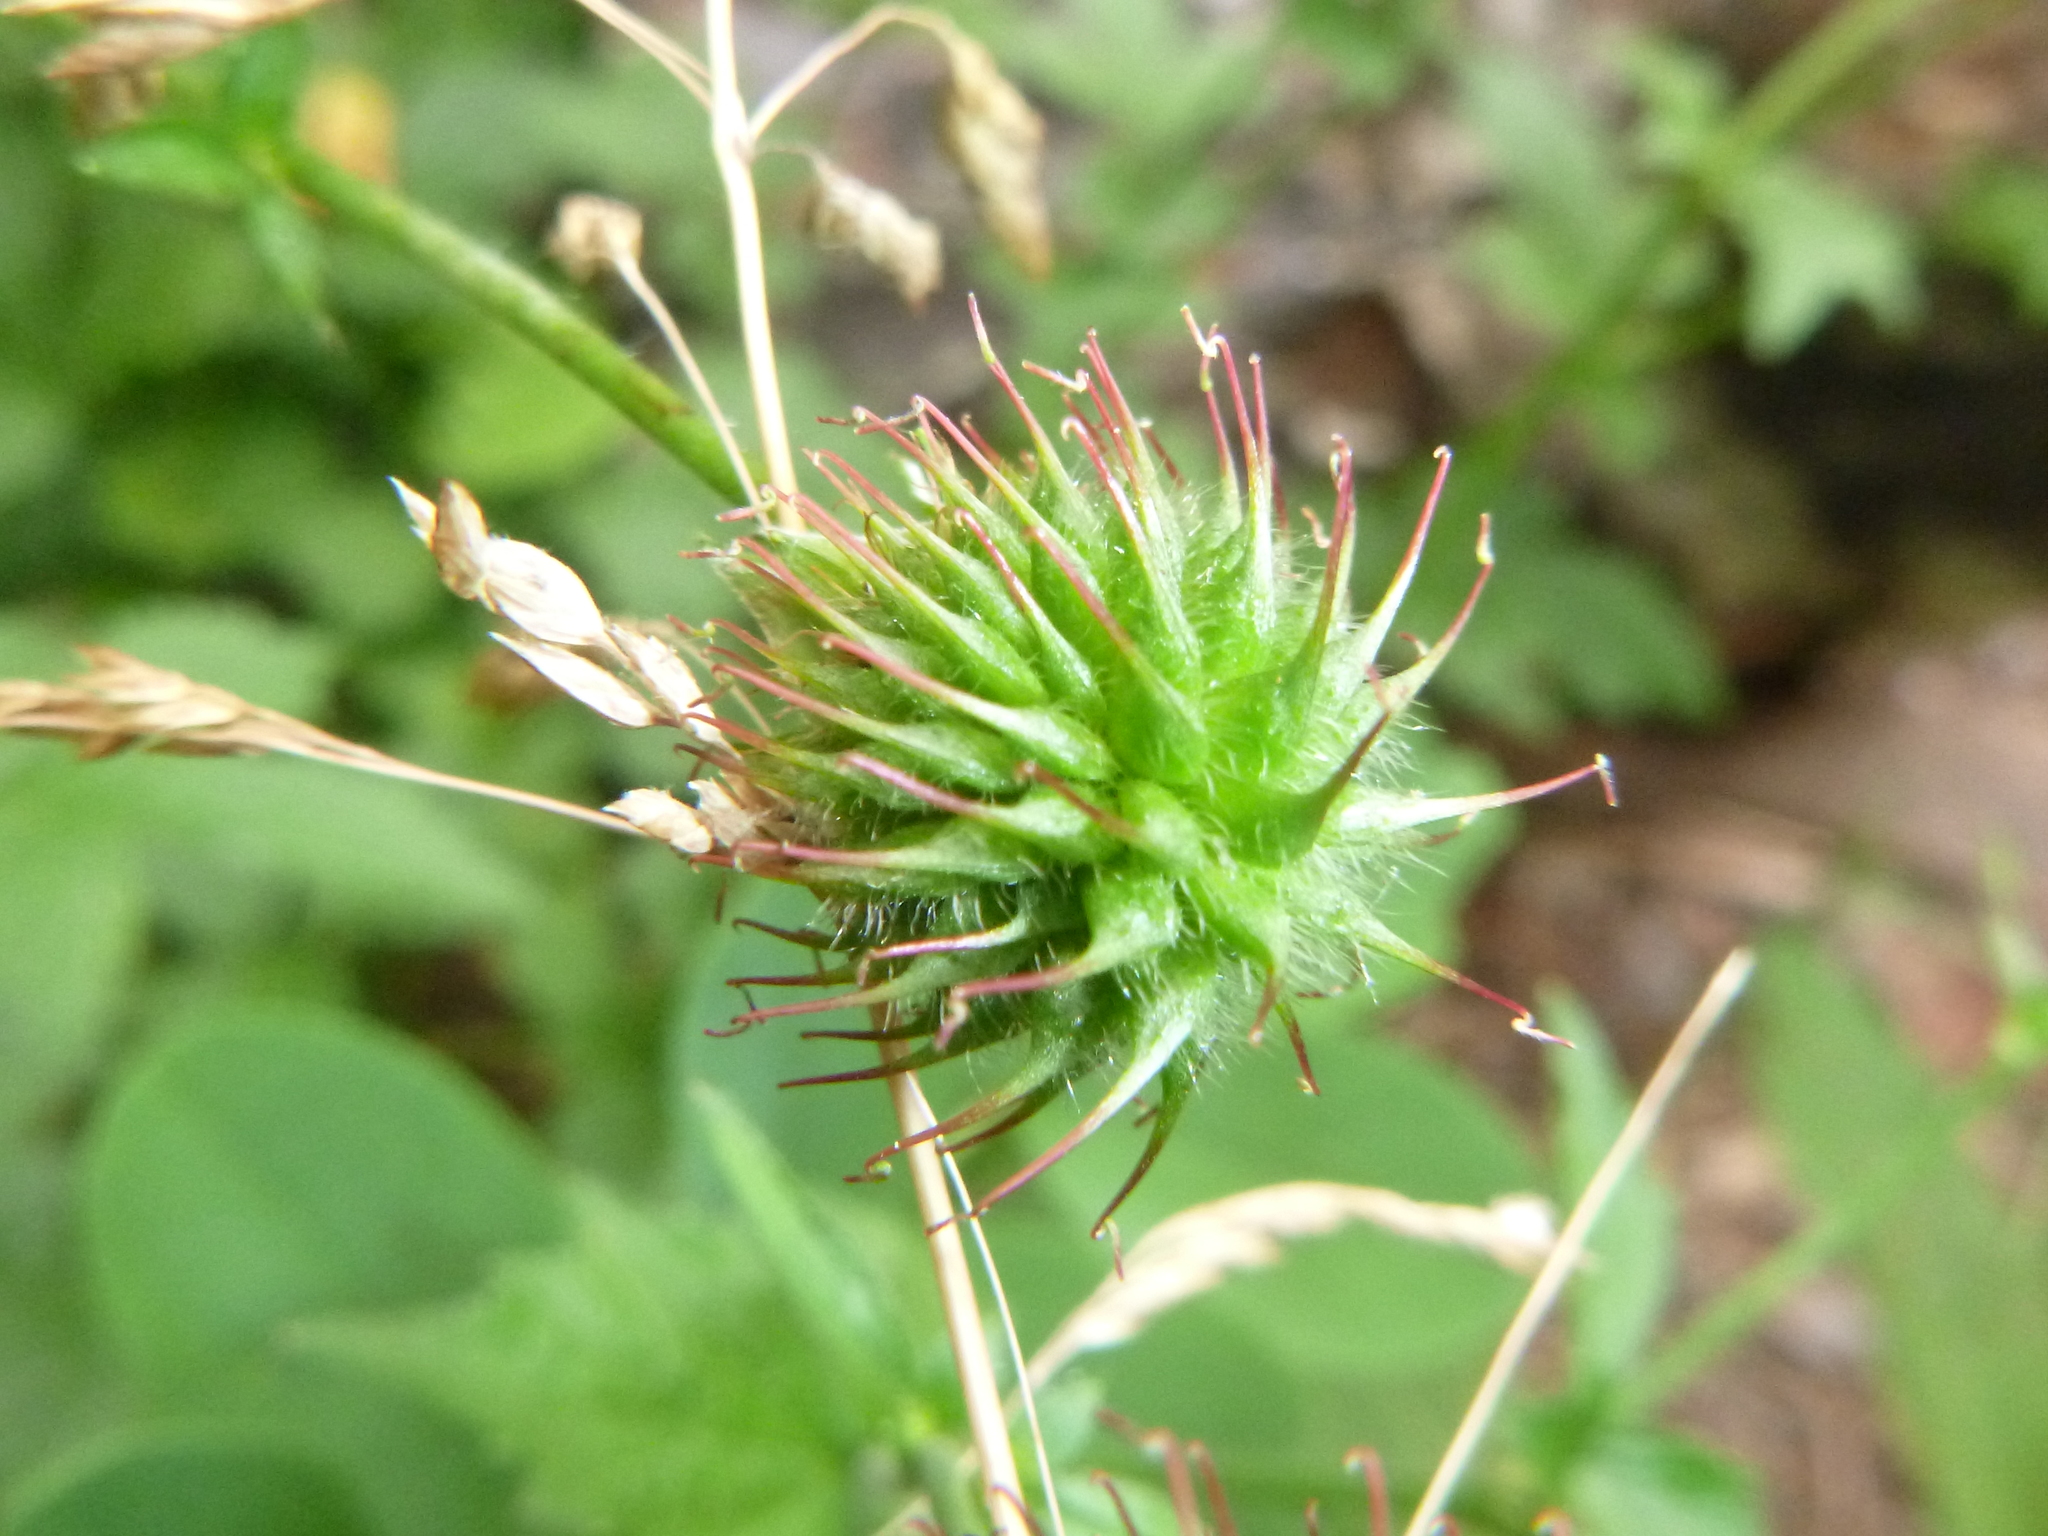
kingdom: Plantae
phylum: Tracheophyta
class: Magnoliopsida
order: Rosales
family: Rosaceae
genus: Geum
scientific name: Geum urbanum
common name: Wood avens
